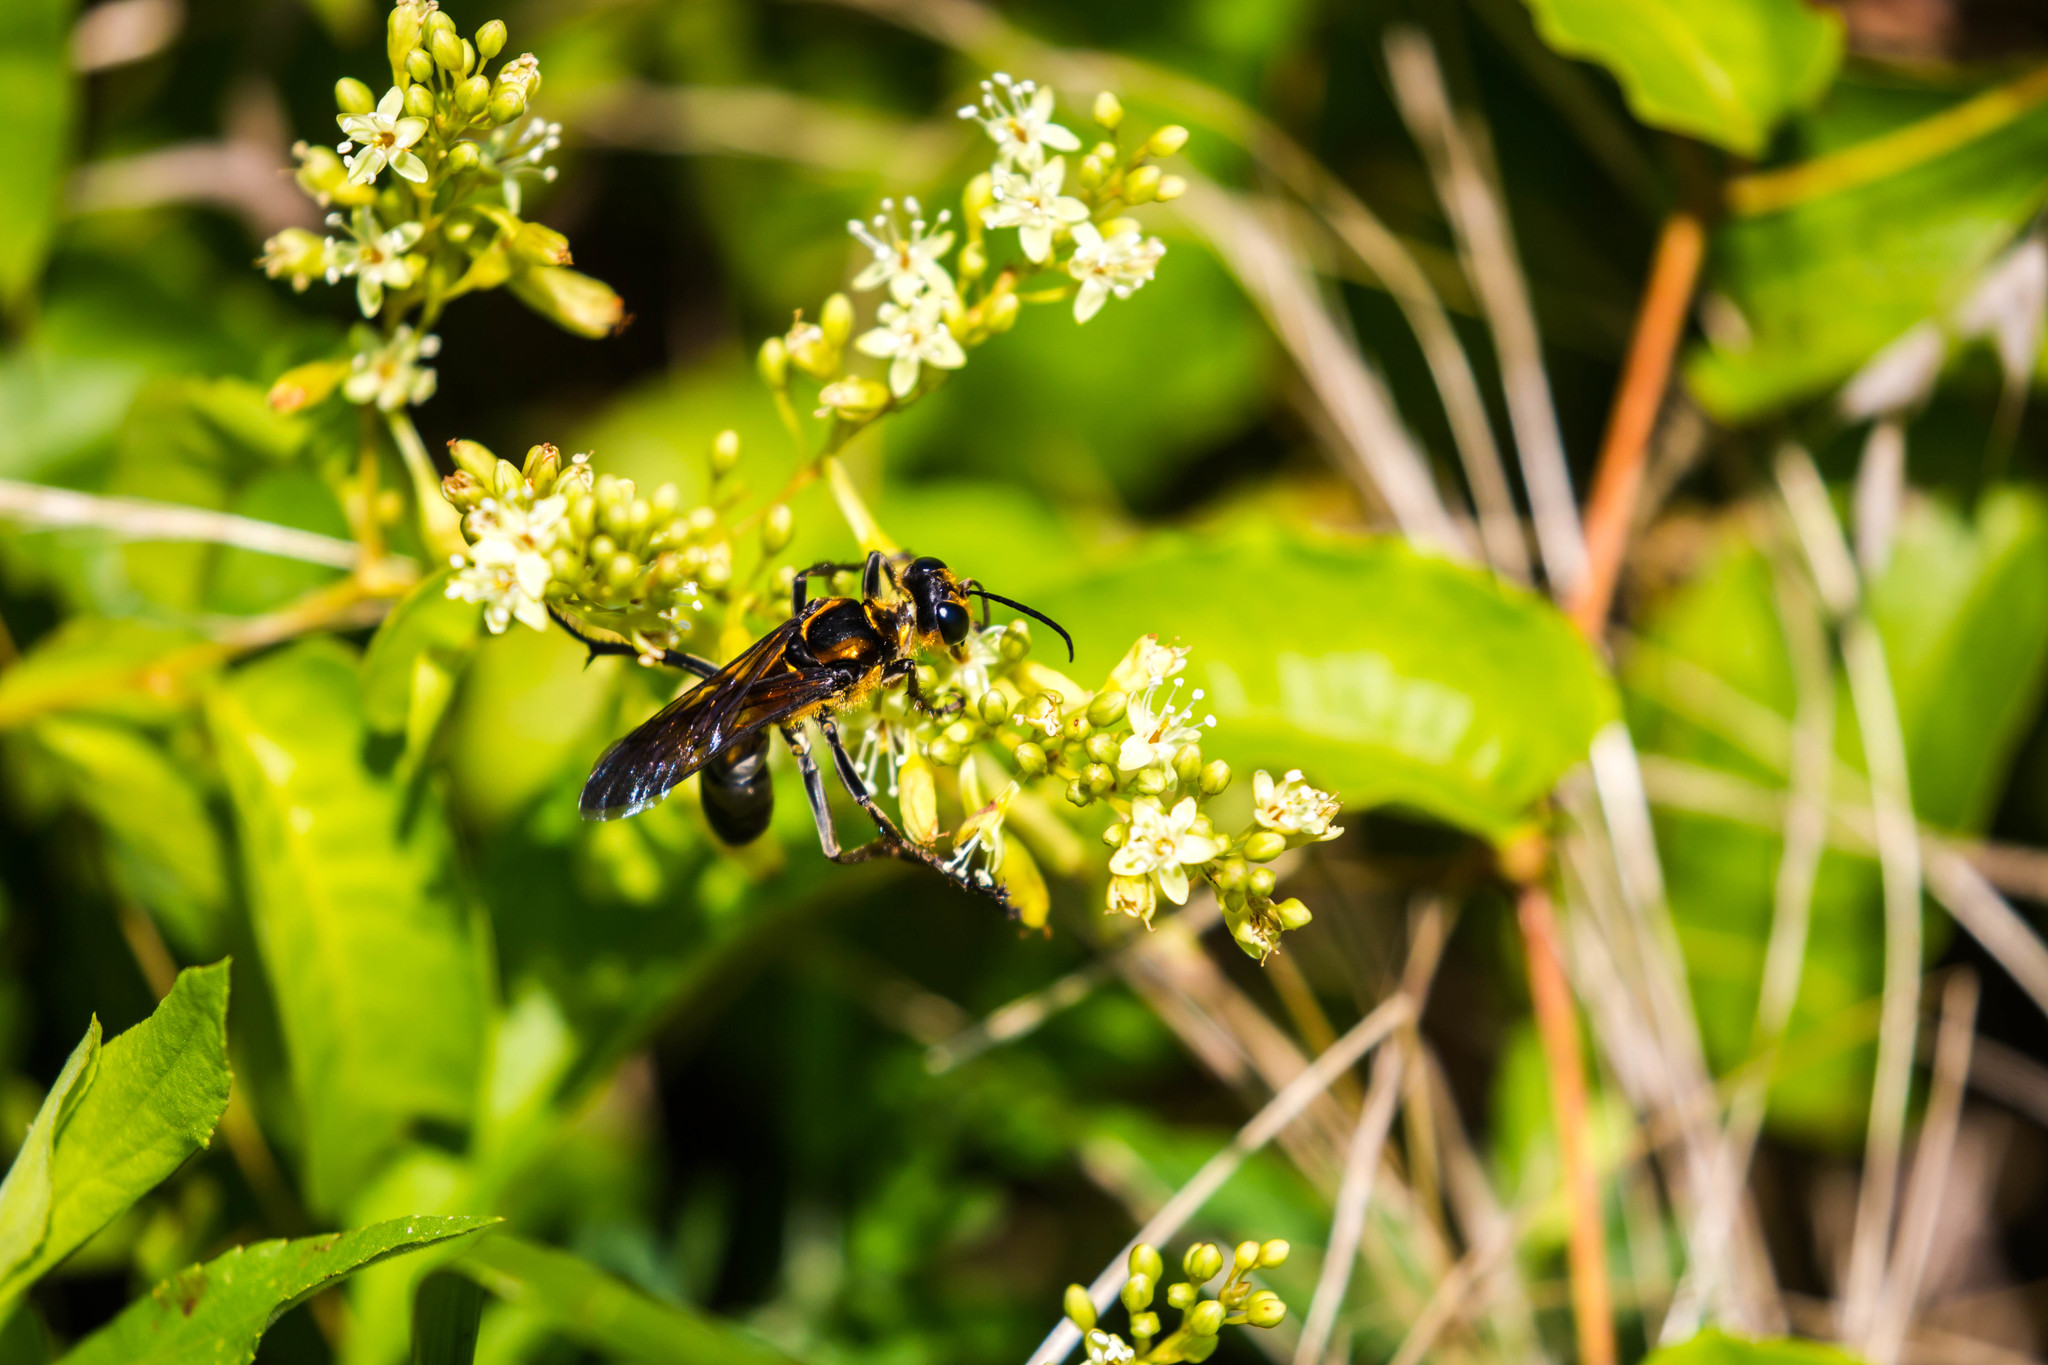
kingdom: Animalia
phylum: Arthropoda
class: Insecta
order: Hymenoptera
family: Sphecidae
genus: Sphex
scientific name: Sphex habenus
